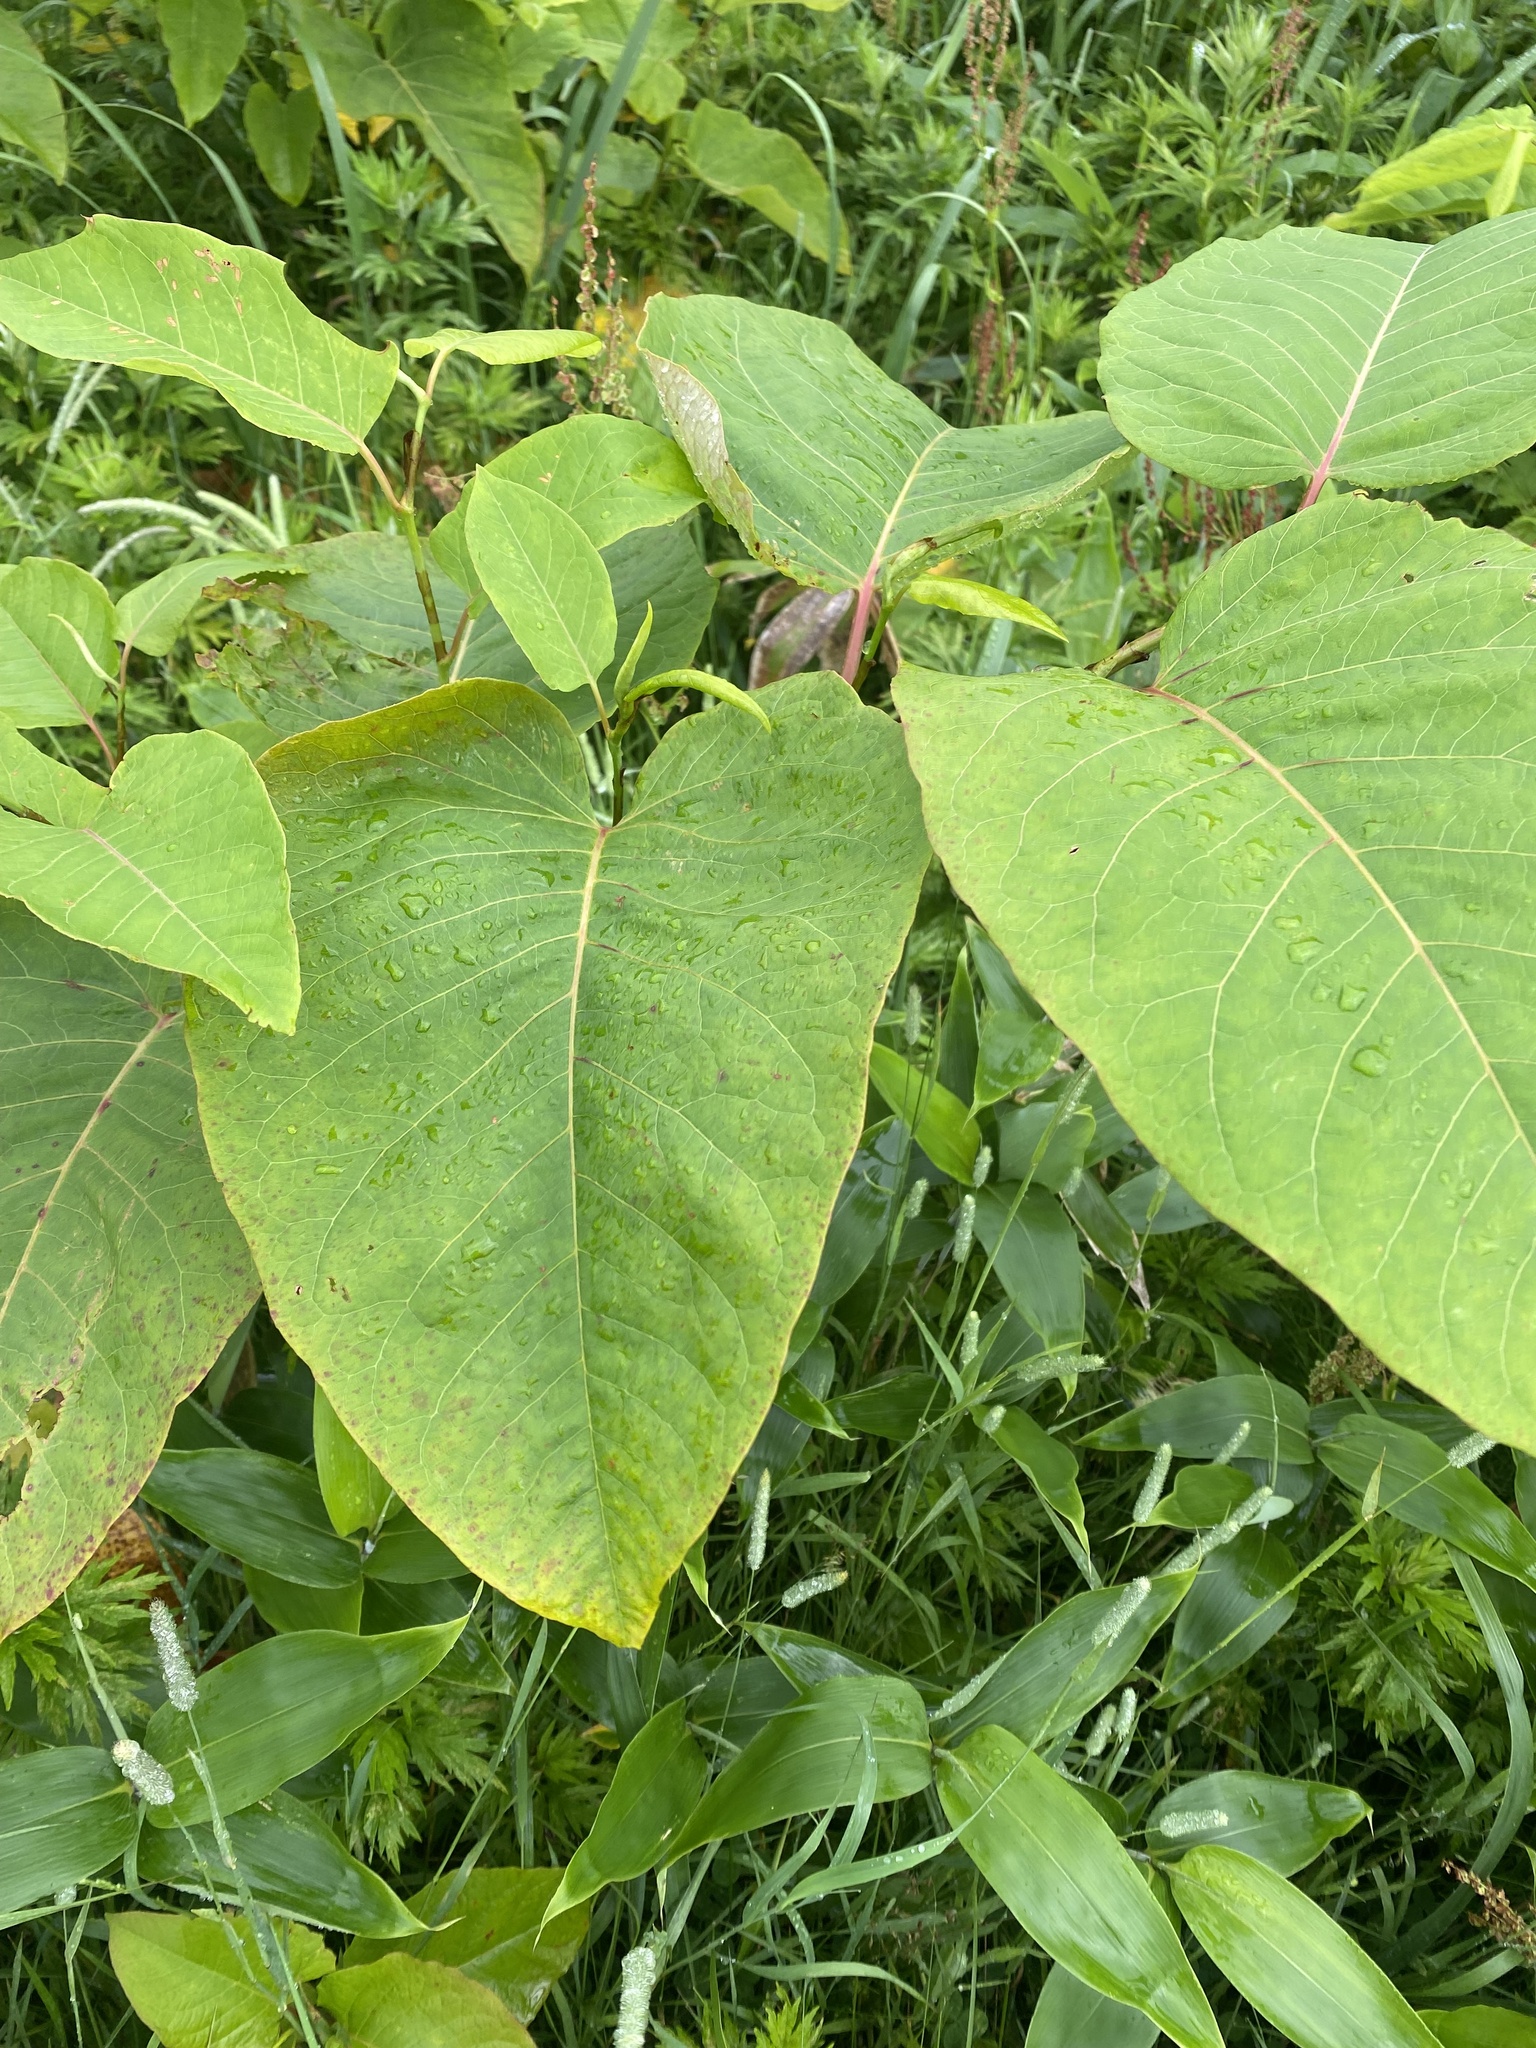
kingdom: Plantae
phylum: Tracheophyta
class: Magnoliopsida
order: Caryophyllales
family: Polygonaceae
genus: Reynoutria
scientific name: Reynoutria sachalinensis
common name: Giant knotweed
